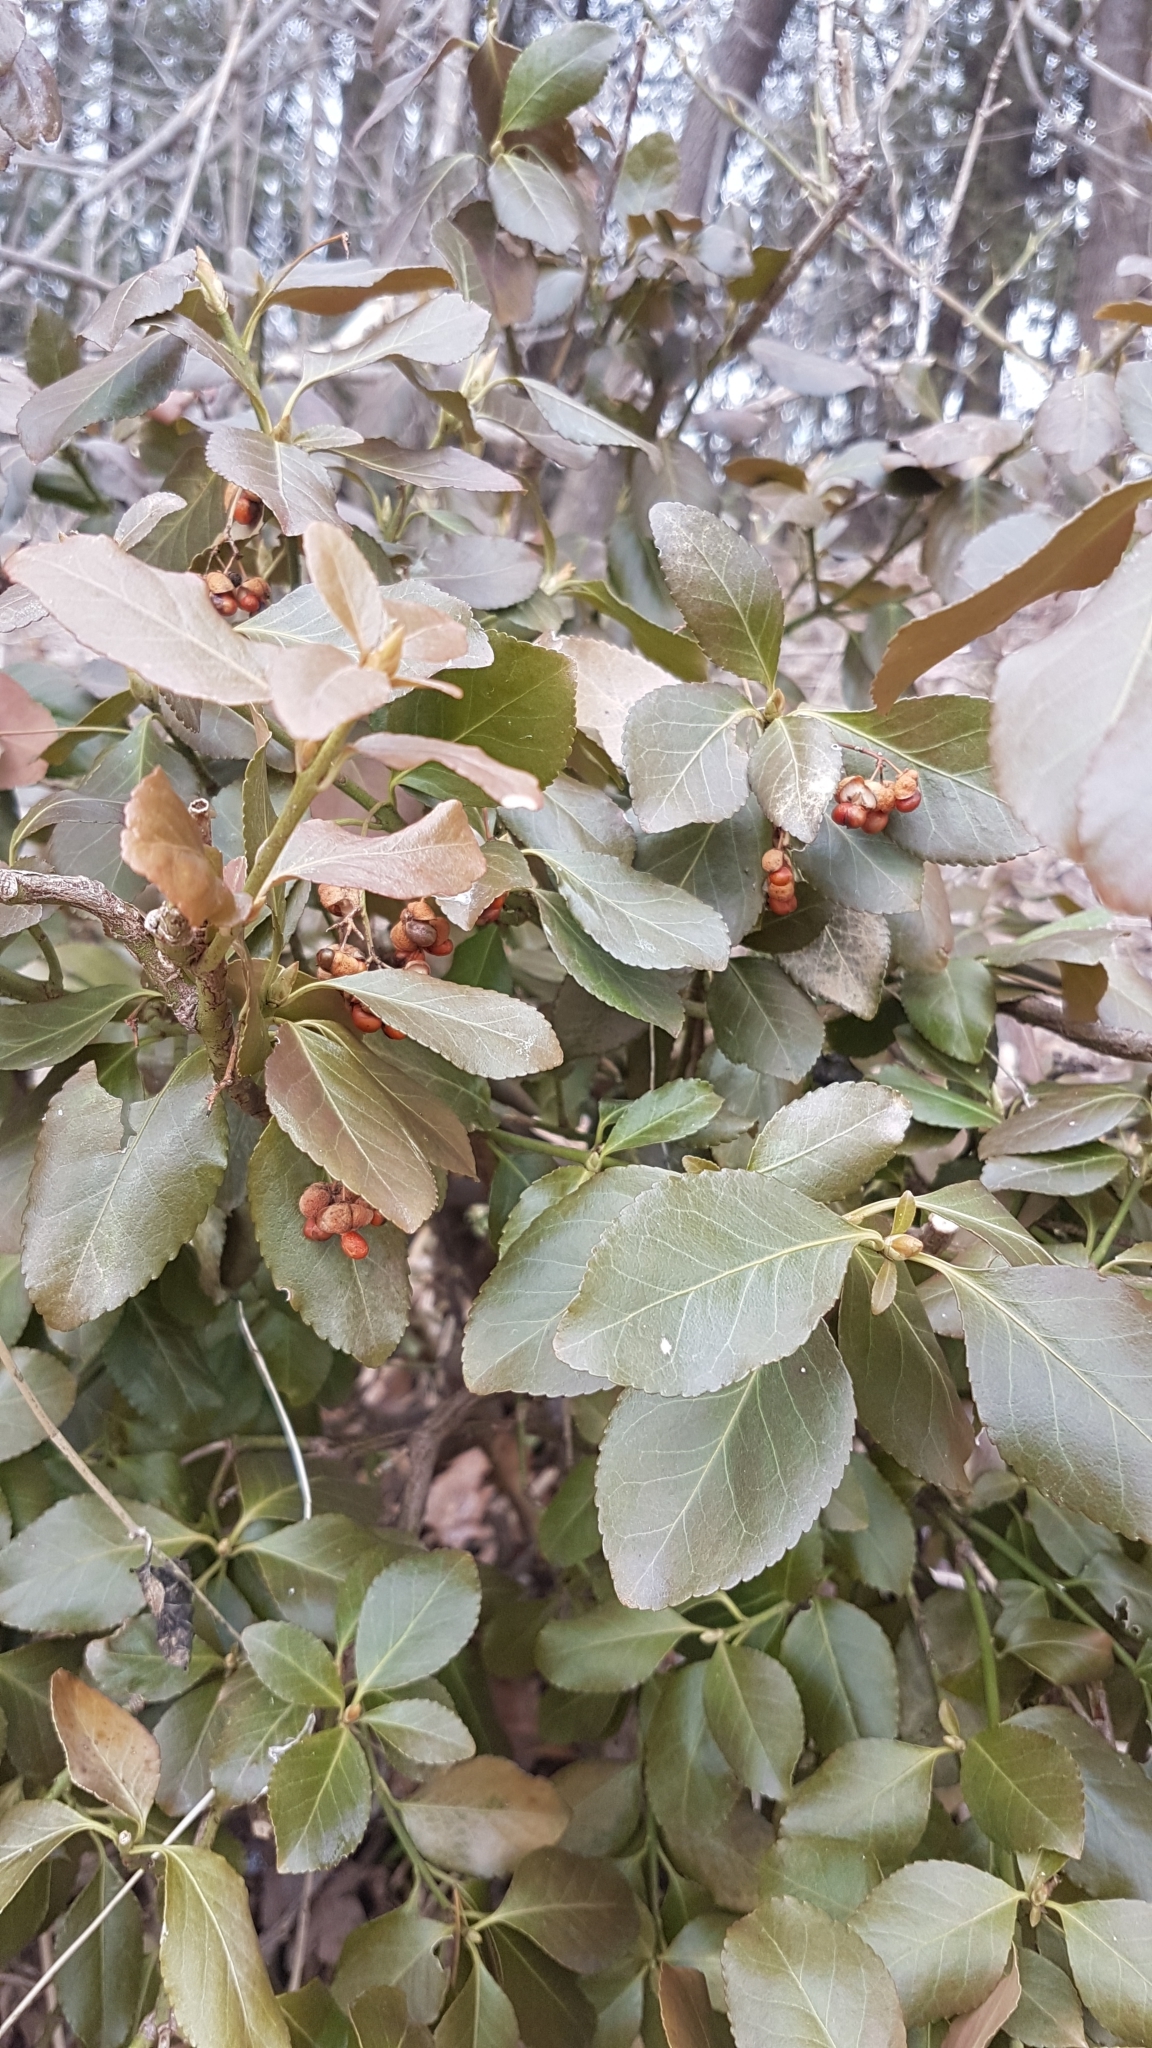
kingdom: Plantae
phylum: Tracheophyta
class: Magnoliopsida
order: Celastrales
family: Celastraceae
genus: Euonymus
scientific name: Euonymus fortunei
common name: Climbing euonymus
